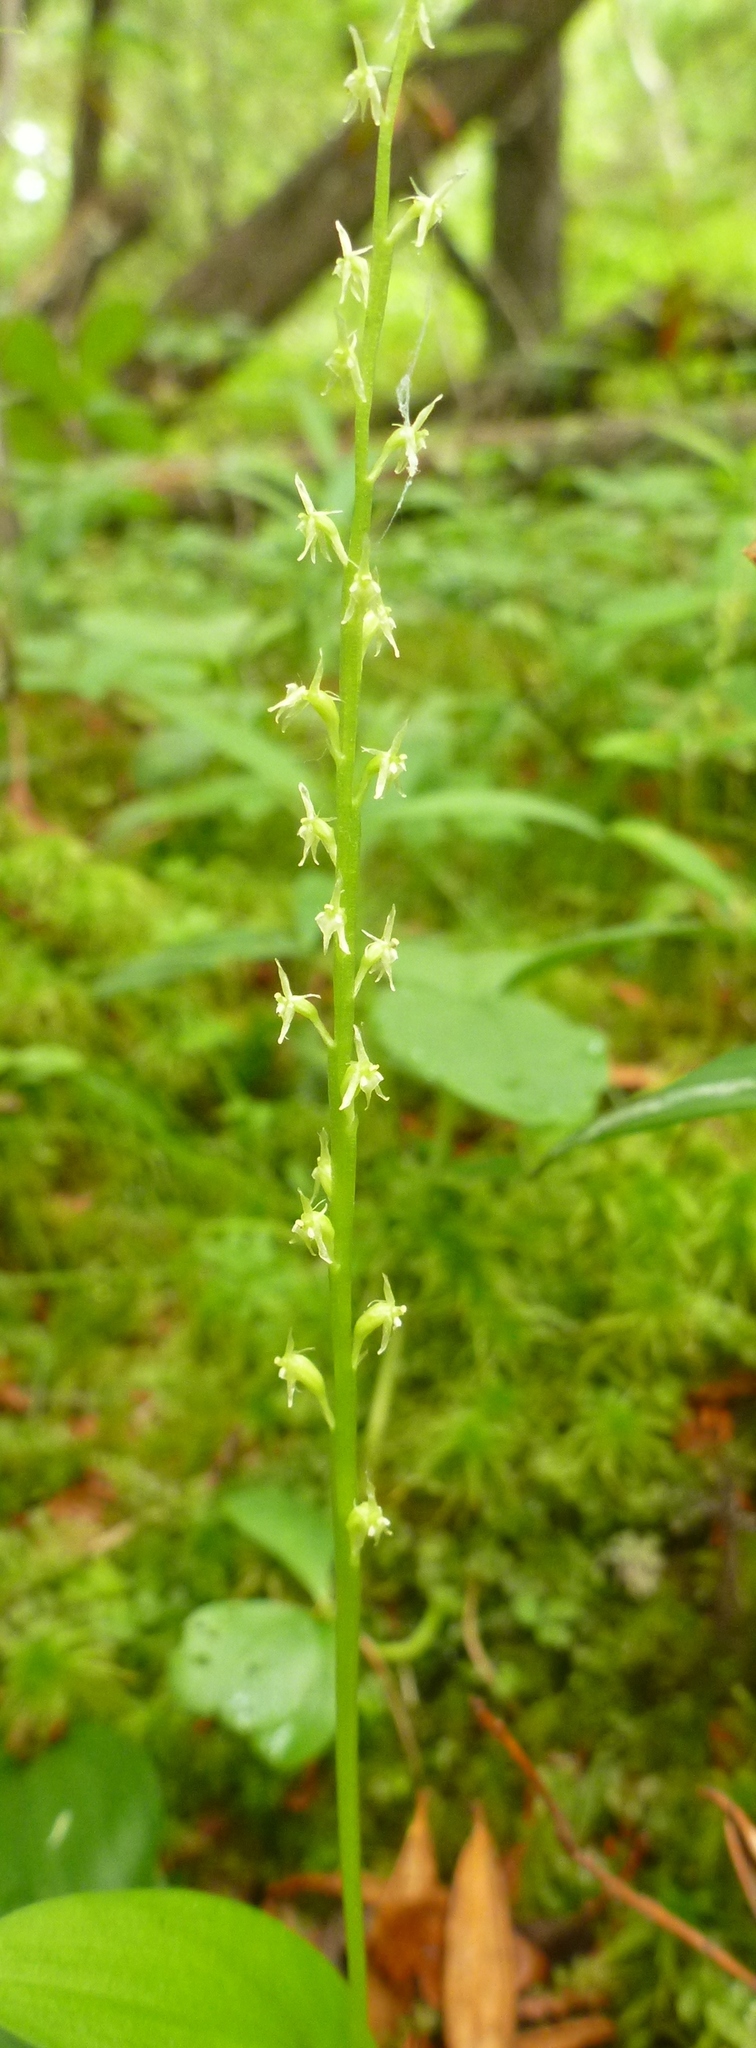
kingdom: Plantae
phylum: Tracheophyta
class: Liliopsida
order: Asparagales
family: Orchidaceae
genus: Malaxis
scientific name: Malaxis monophyllos
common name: White adder's-mouth
